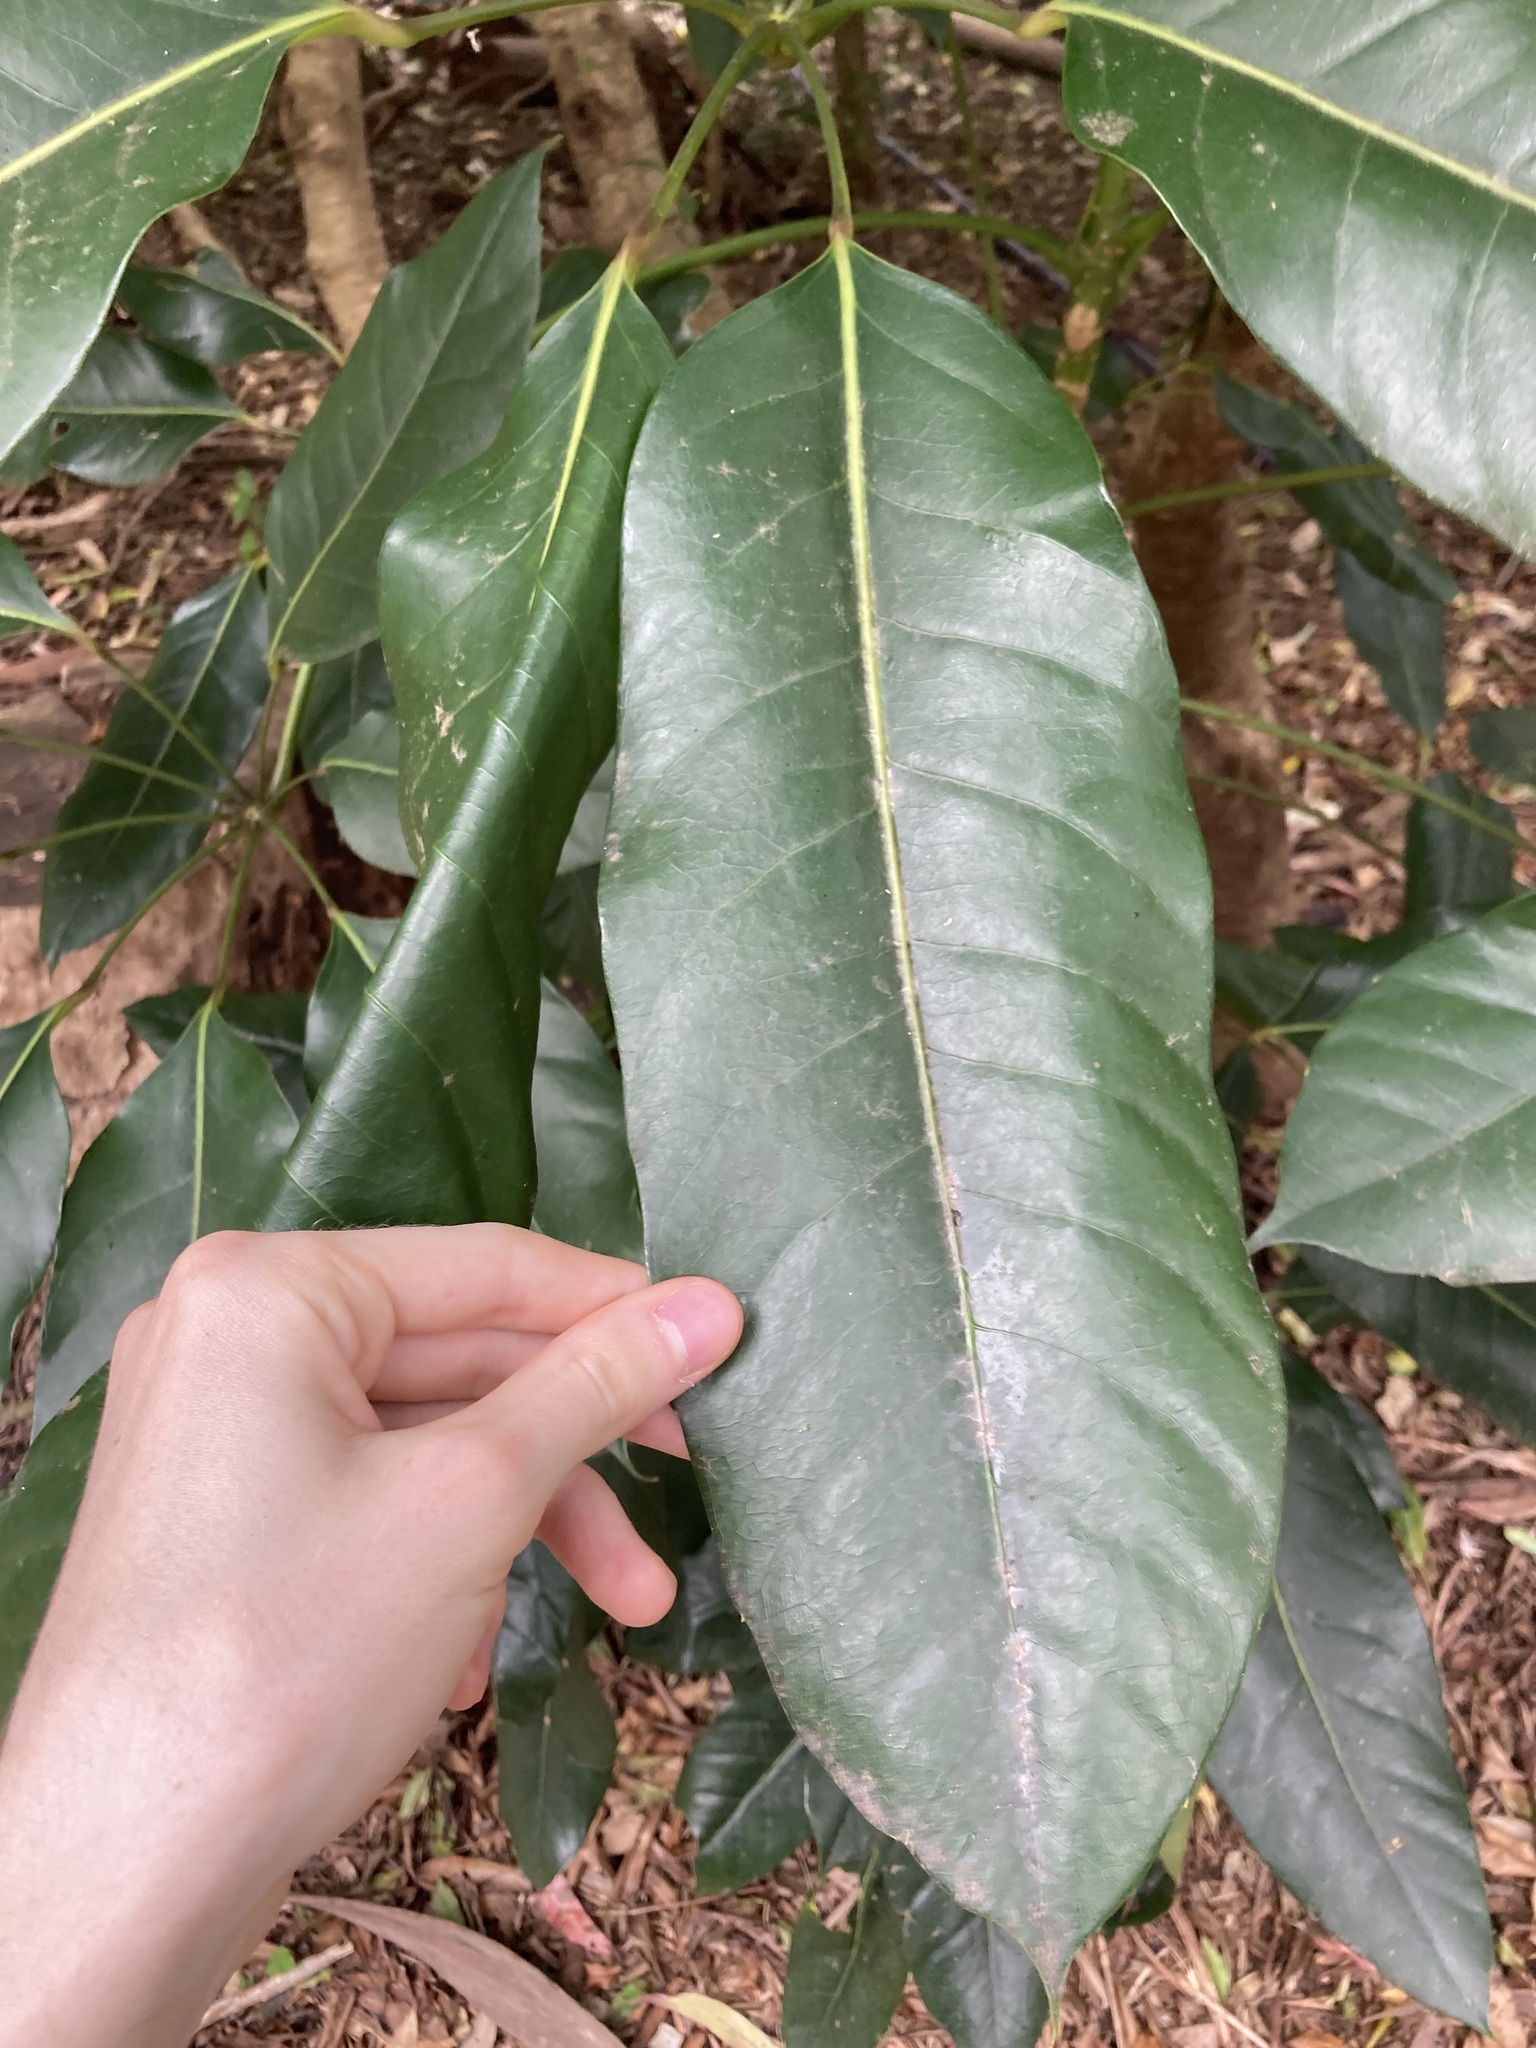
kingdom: Plantae
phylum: Tracheophyta
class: Magnoliopsida
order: Apiales
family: Araliaceae
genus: Heptapleurum
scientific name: Heptapleurum actinophyllum
